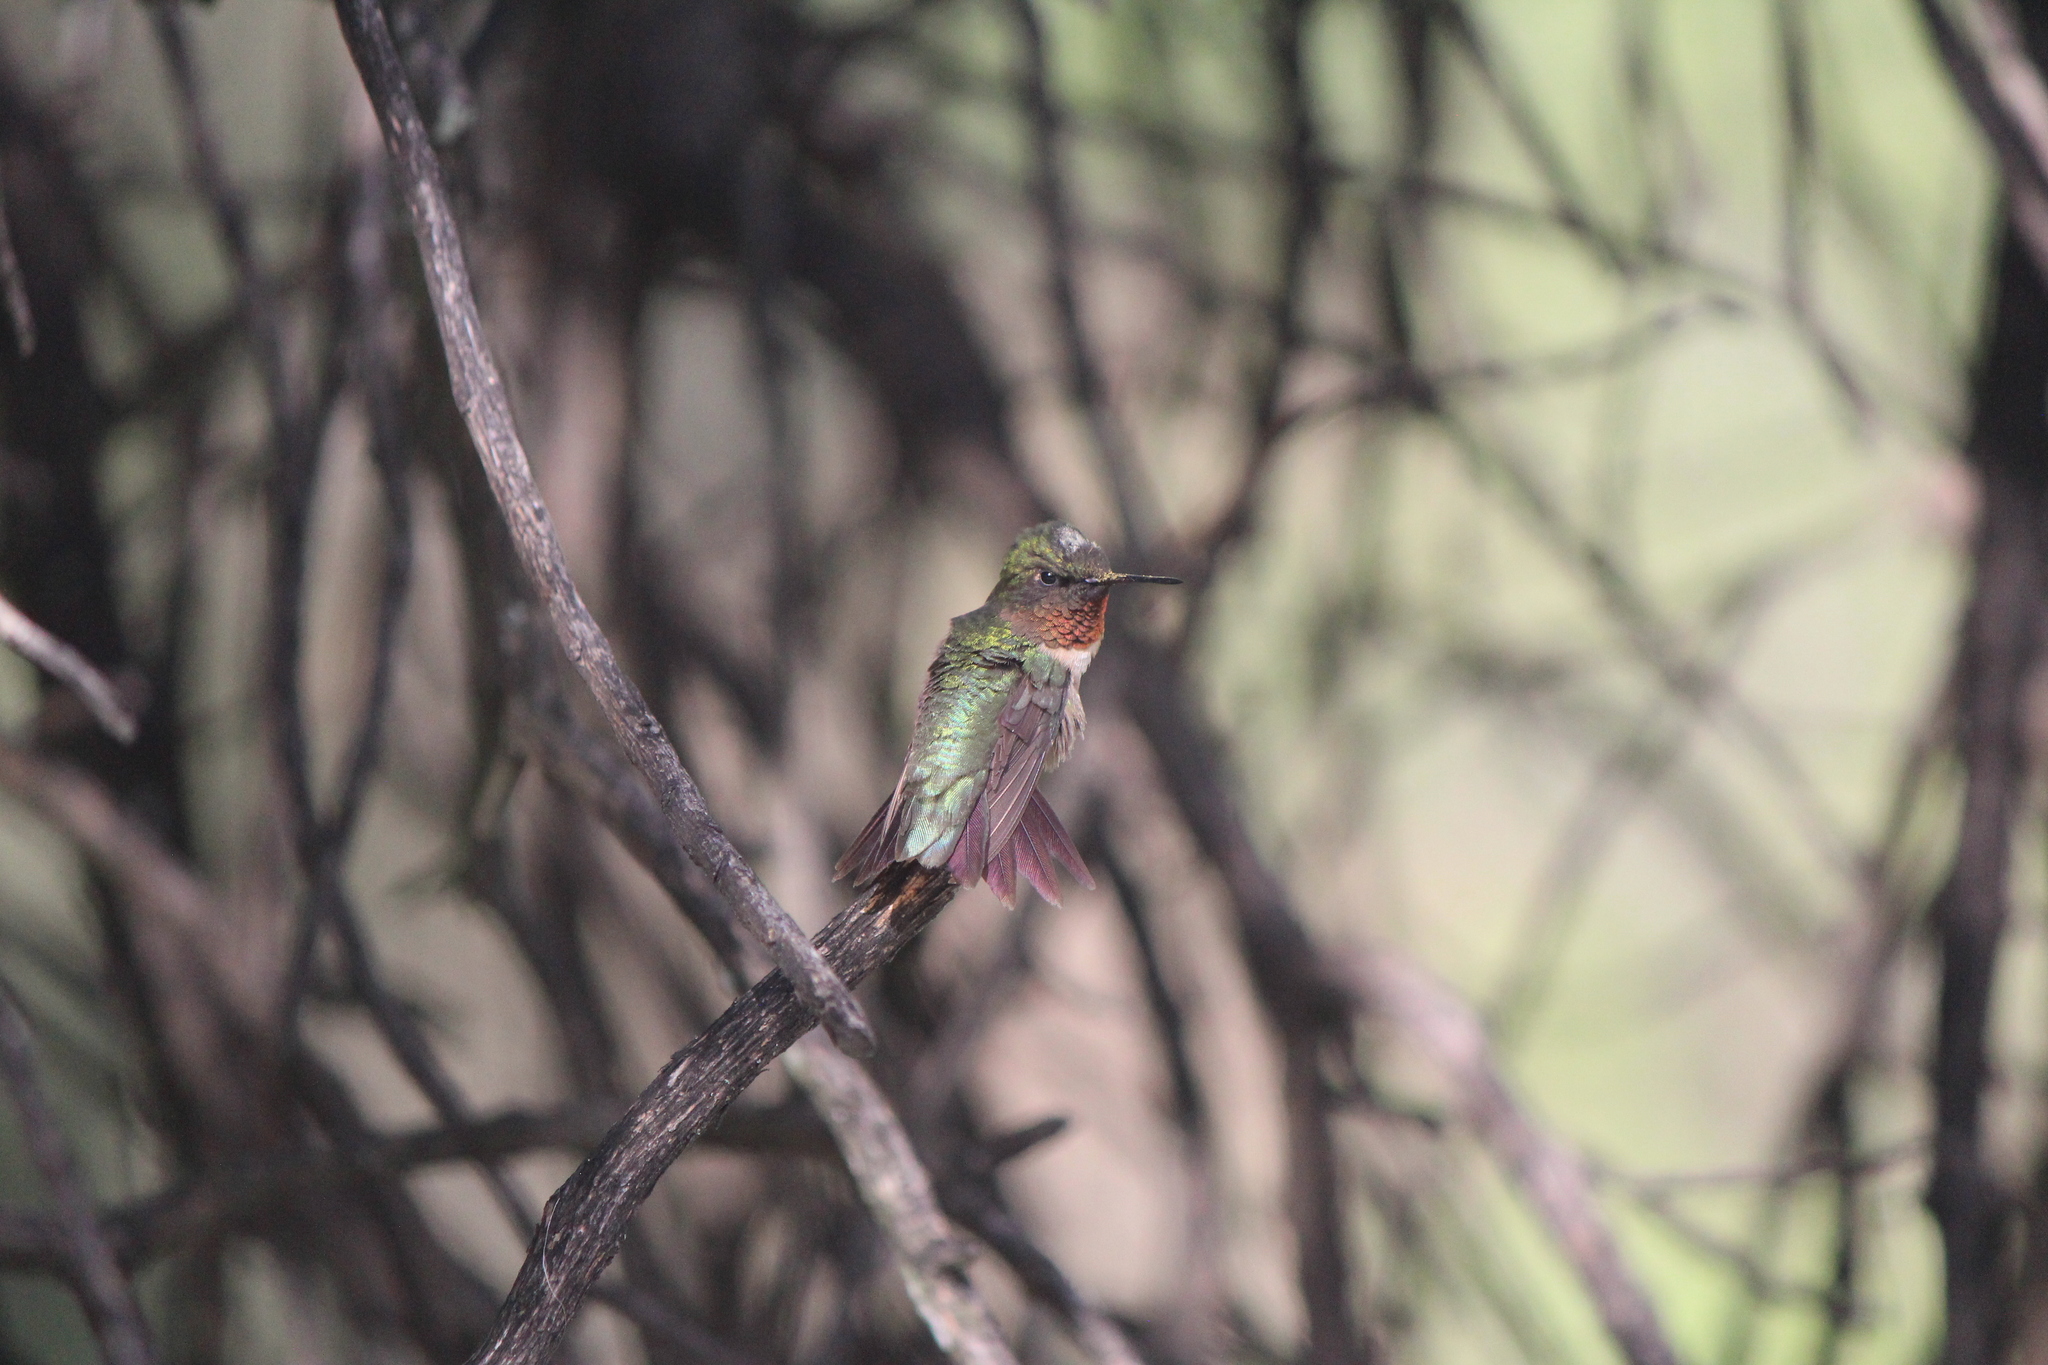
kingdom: Animalia
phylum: Chordata
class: Aves
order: Apodiformes
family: Trochilidae
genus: Archilochus
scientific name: Archilochus colubris
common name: Ruby-throated hummingbird
